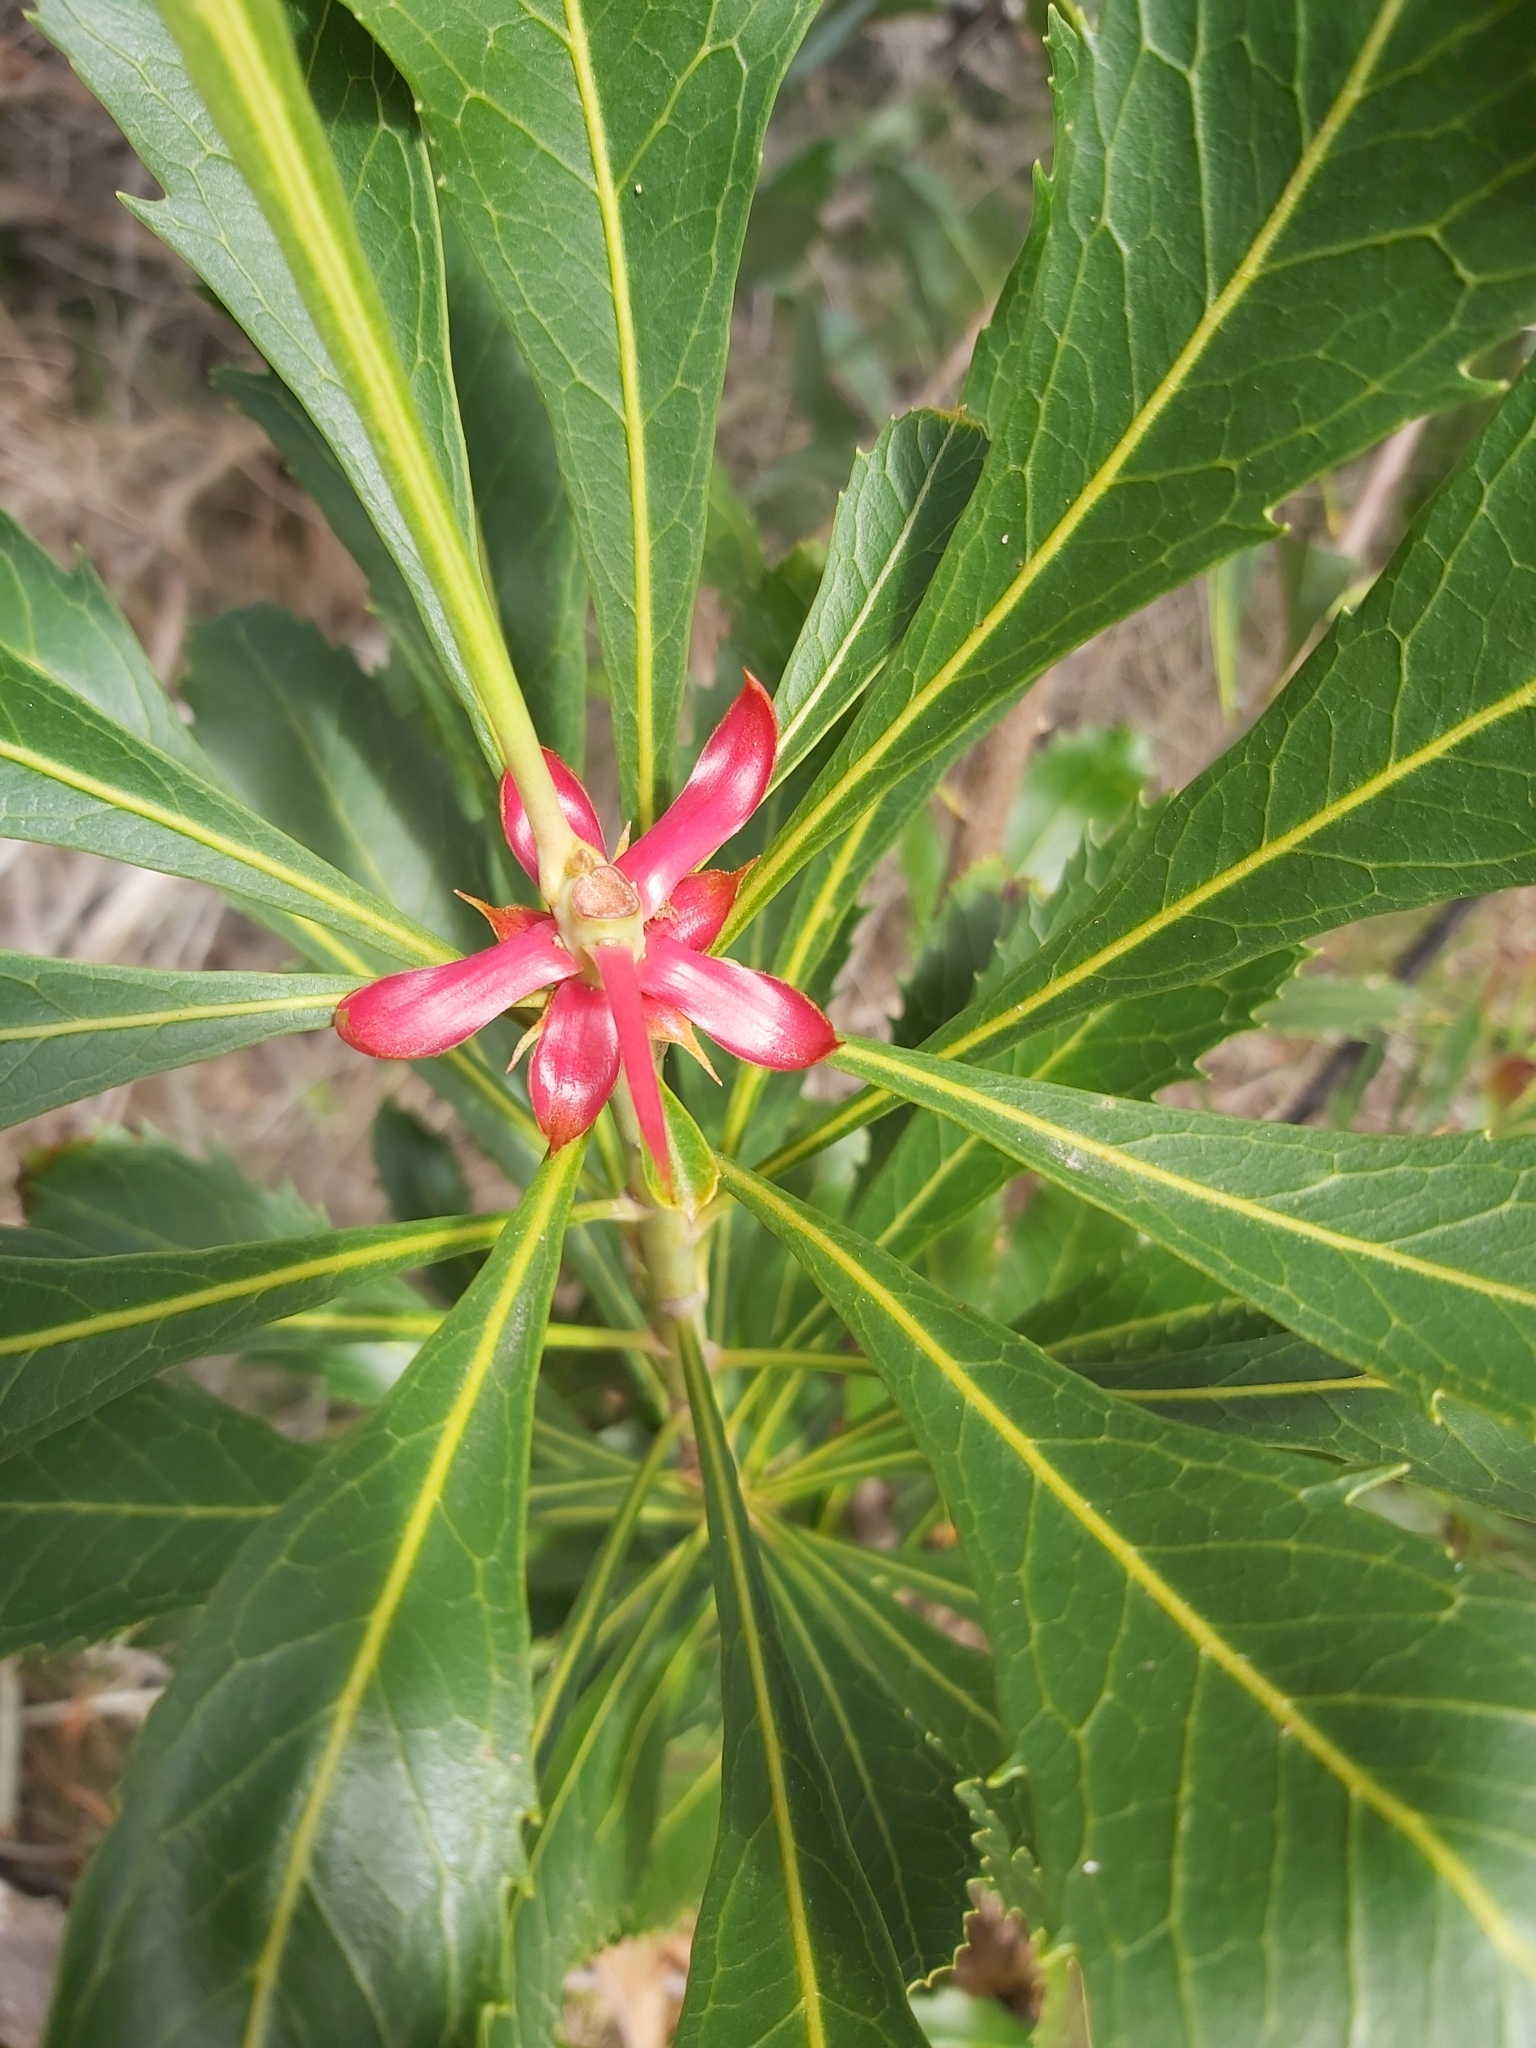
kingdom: Plantae
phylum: Tracheophyta
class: Magnoliopsida
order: Proteales
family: Proteaceae
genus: Telopea
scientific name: Telopea speciosissima
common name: New south wales waratah
